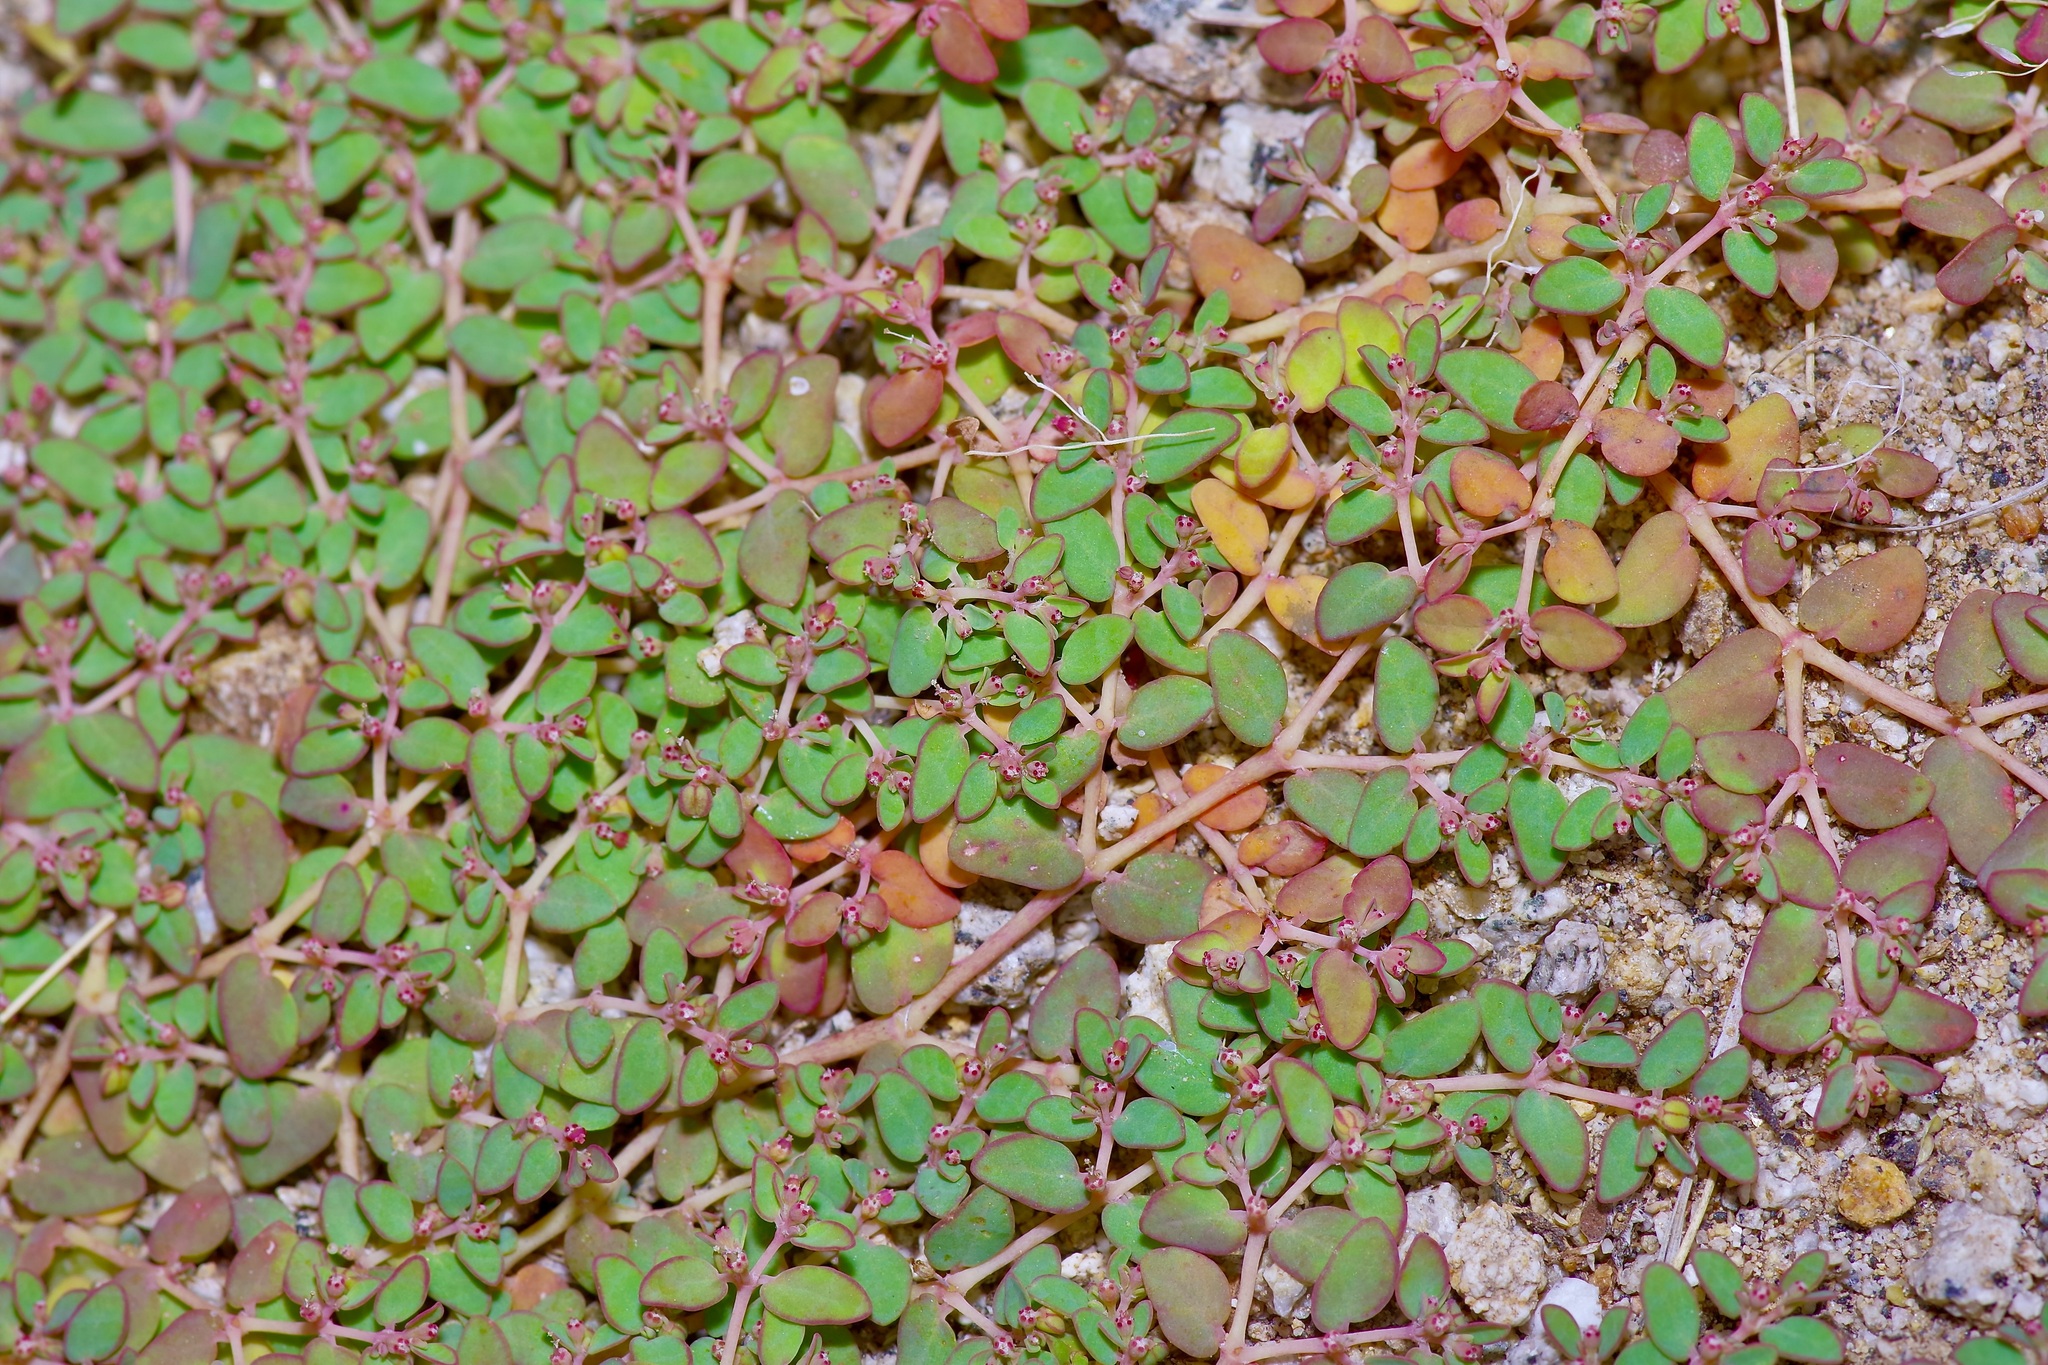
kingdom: Plantae
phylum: Tracheophyta
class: Magnoliopsida
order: Malpighiales
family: Euphorbiaceae
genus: Euphorbia
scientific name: Euphorbia micromera
